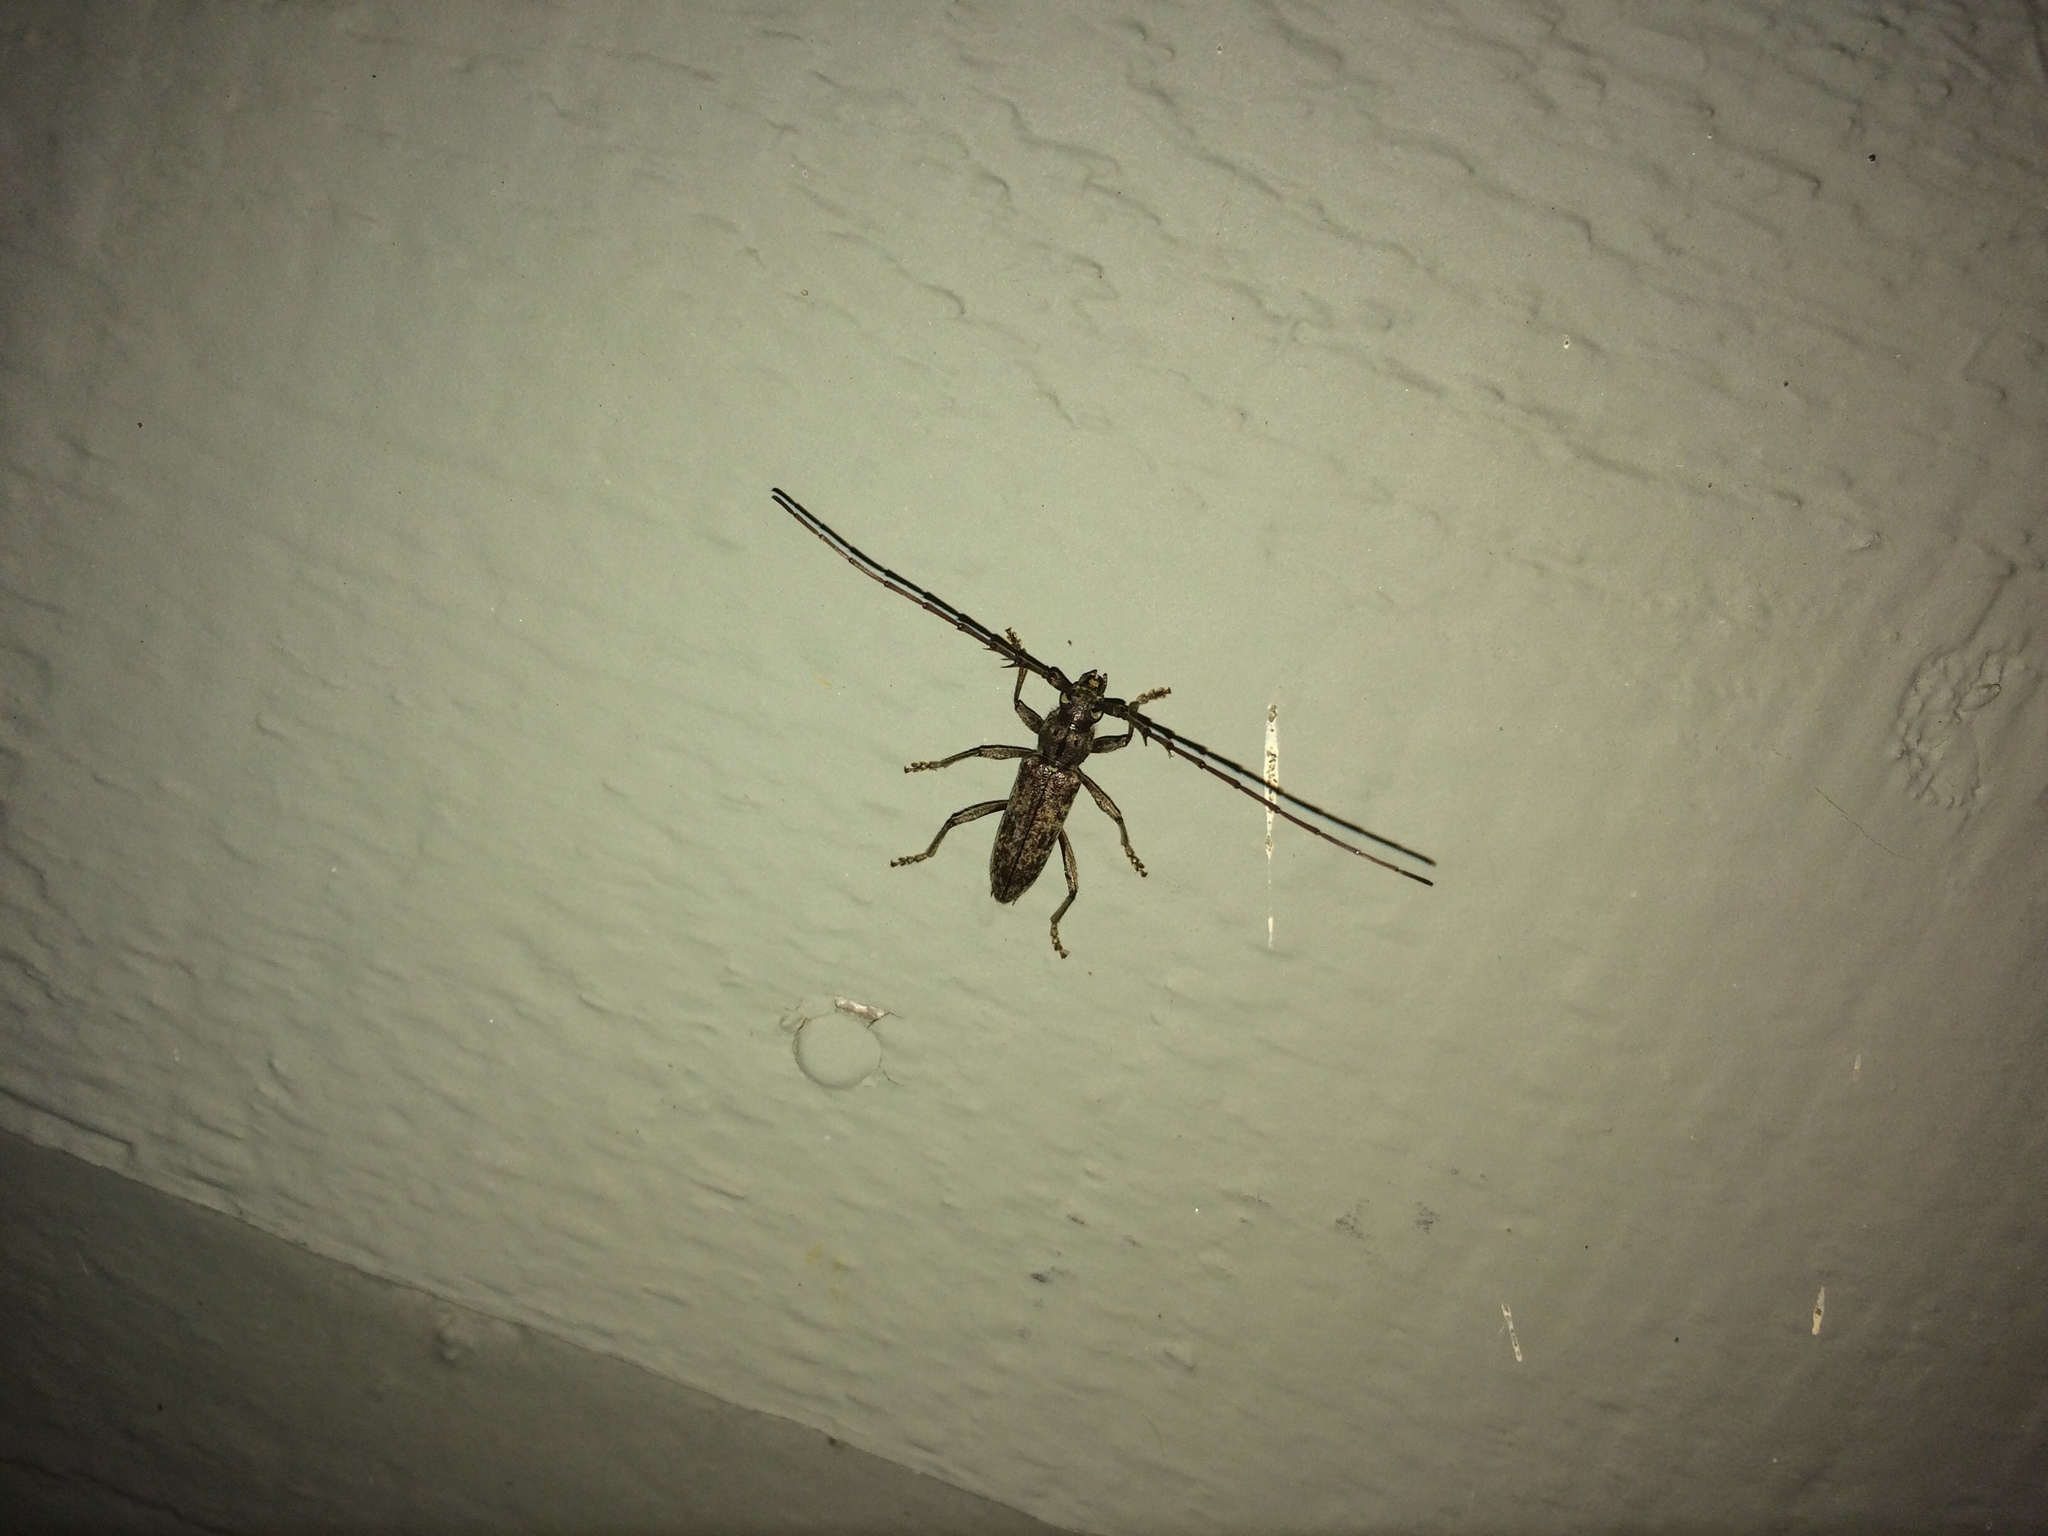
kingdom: Animalia
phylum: Arthropoda
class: Insecta
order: Coleoptera
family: Cerambycidae
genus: Elaphidion
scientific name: Elaphidion mucronatum
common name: Spined oak borer
